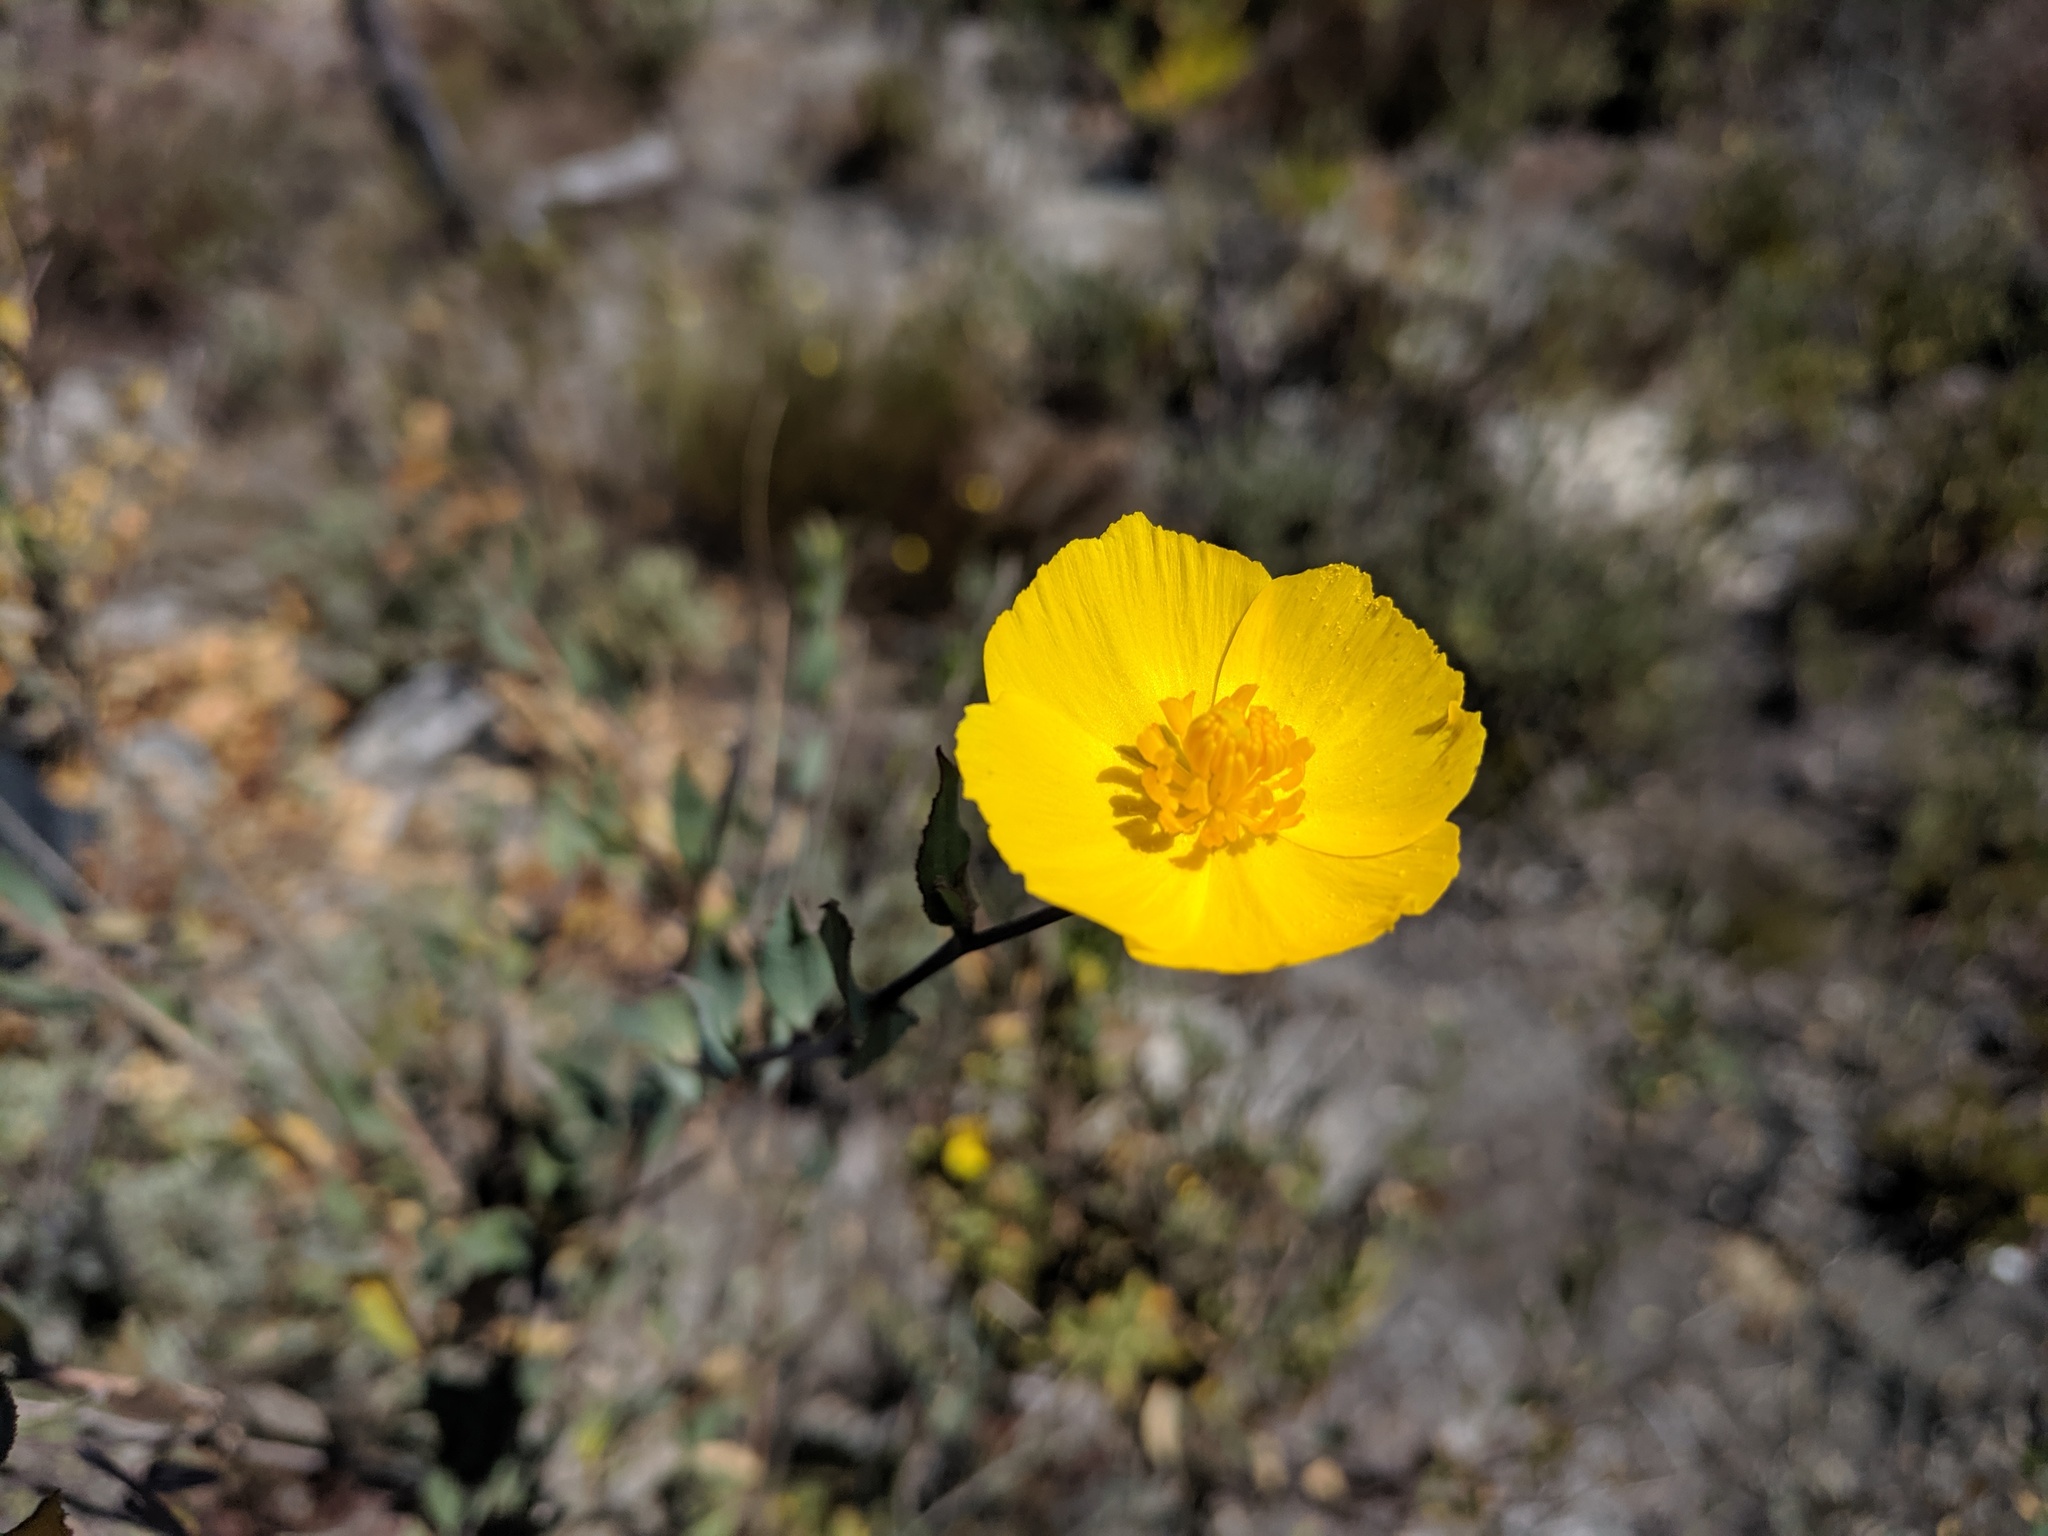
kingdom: Plantae
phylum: Tracheophyta
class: Magnoliopsida
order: Ranunculales
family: Papaveraceae
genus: Dendromecon
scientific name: Dendromecon rigida
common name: Tree poppy
